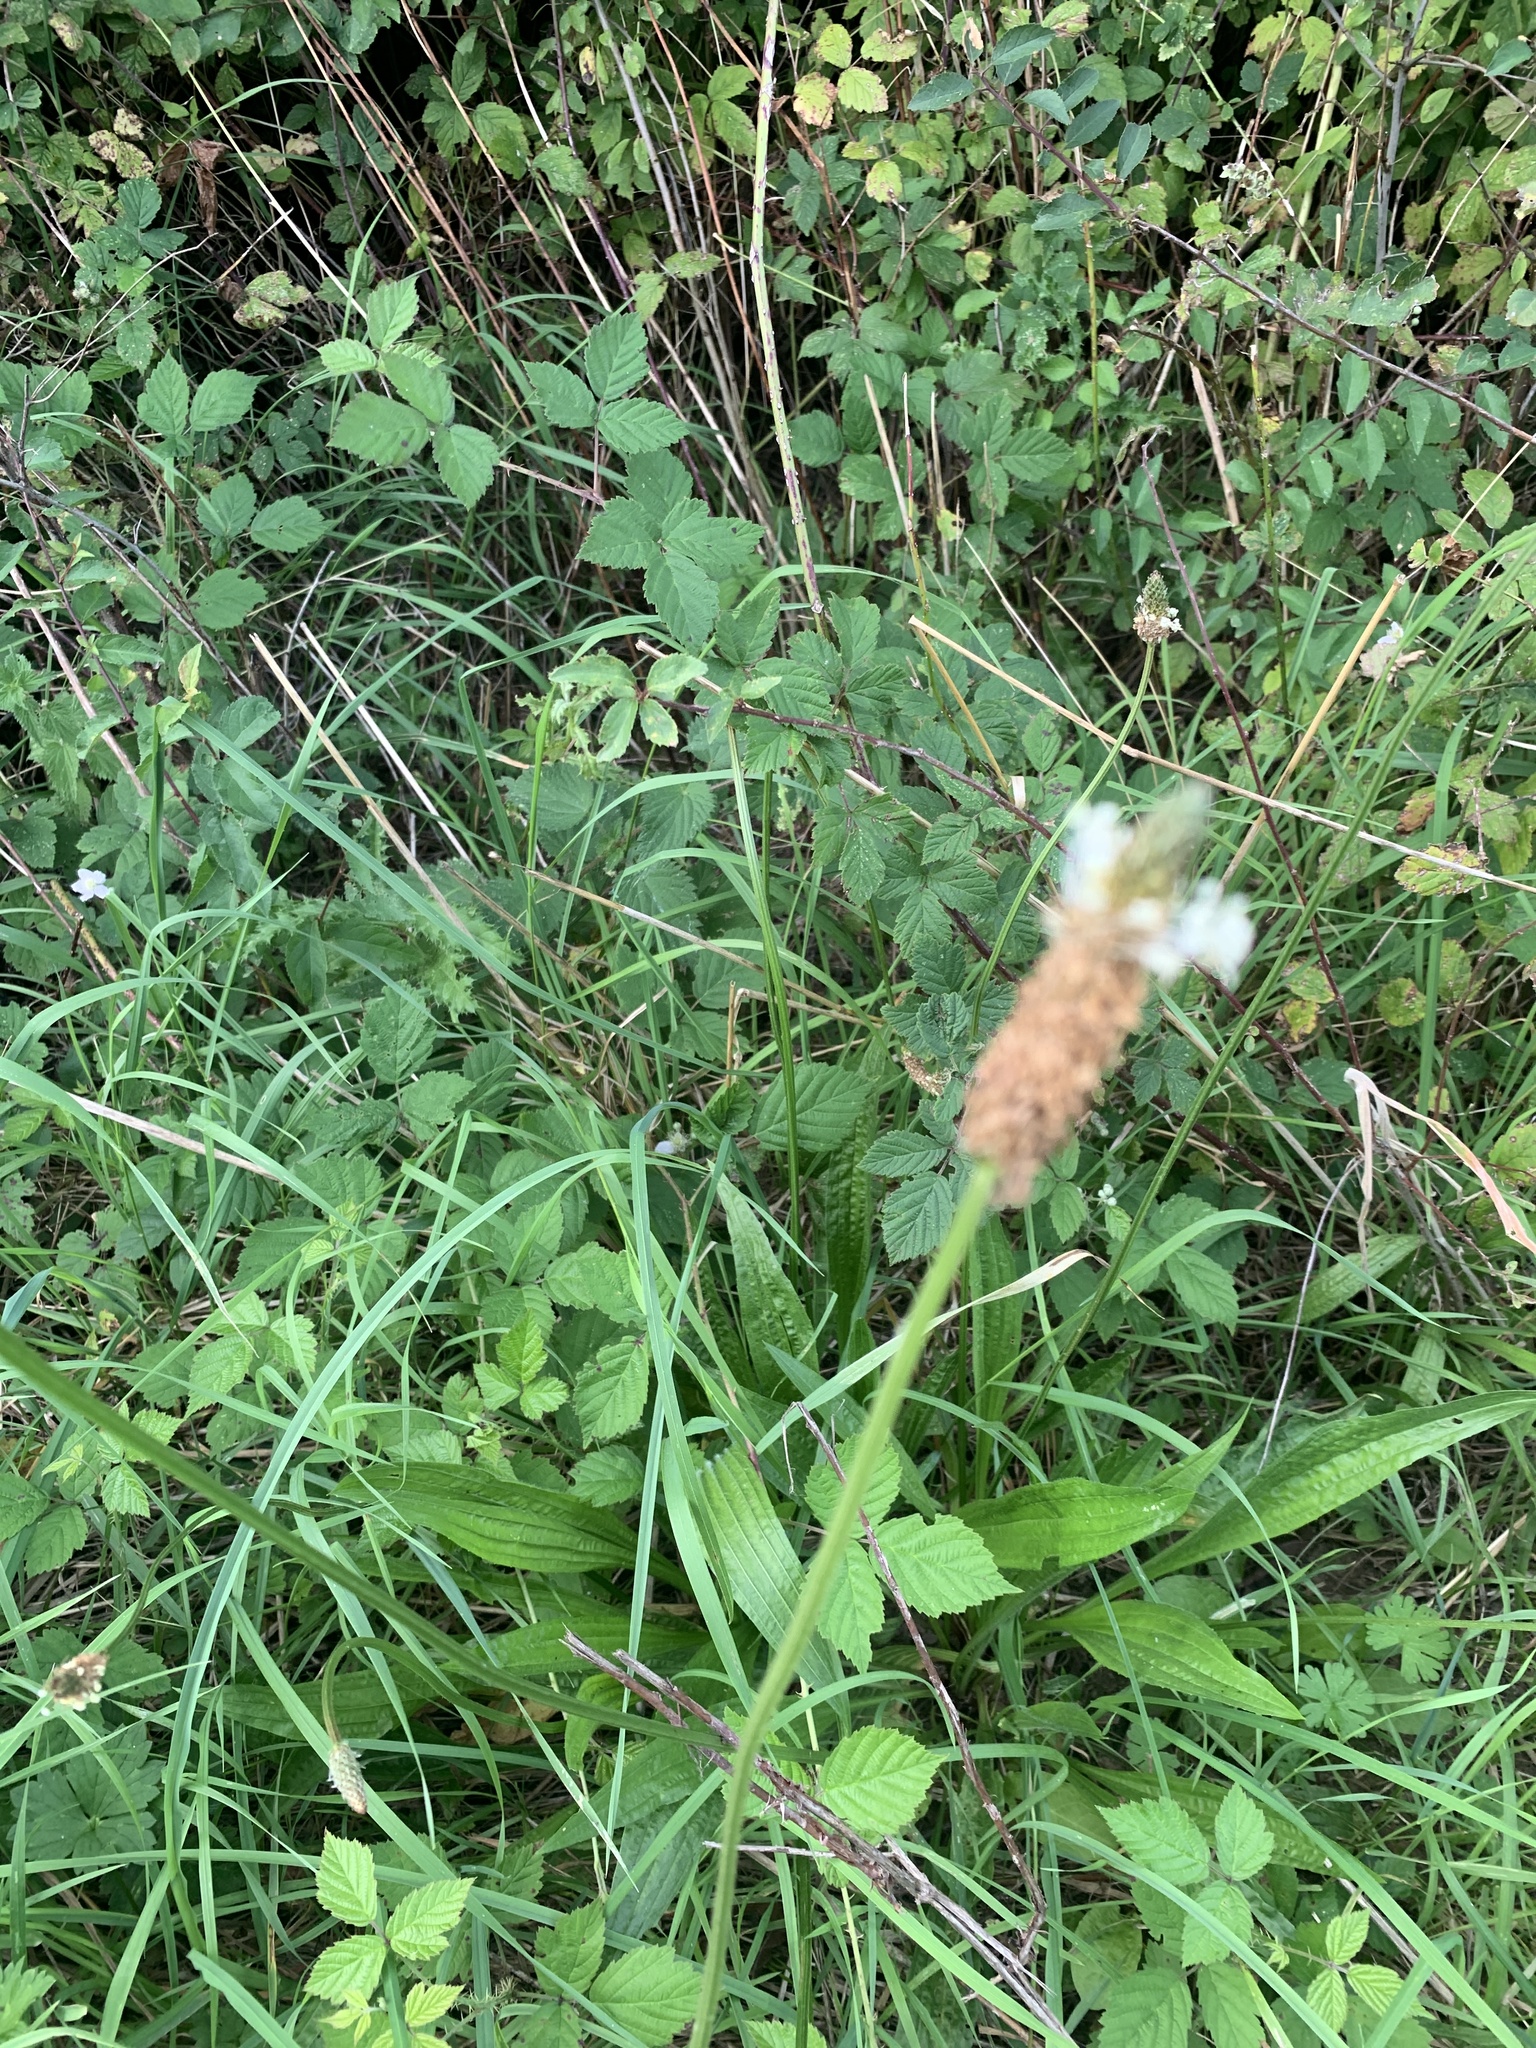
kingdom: Plantae
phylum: Tracheophyta
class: Magnoliopsida
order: Lamiales
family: Plantaginaceae
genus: Plantago
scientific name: Plantago lanceolata
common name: Ribwort plantain
